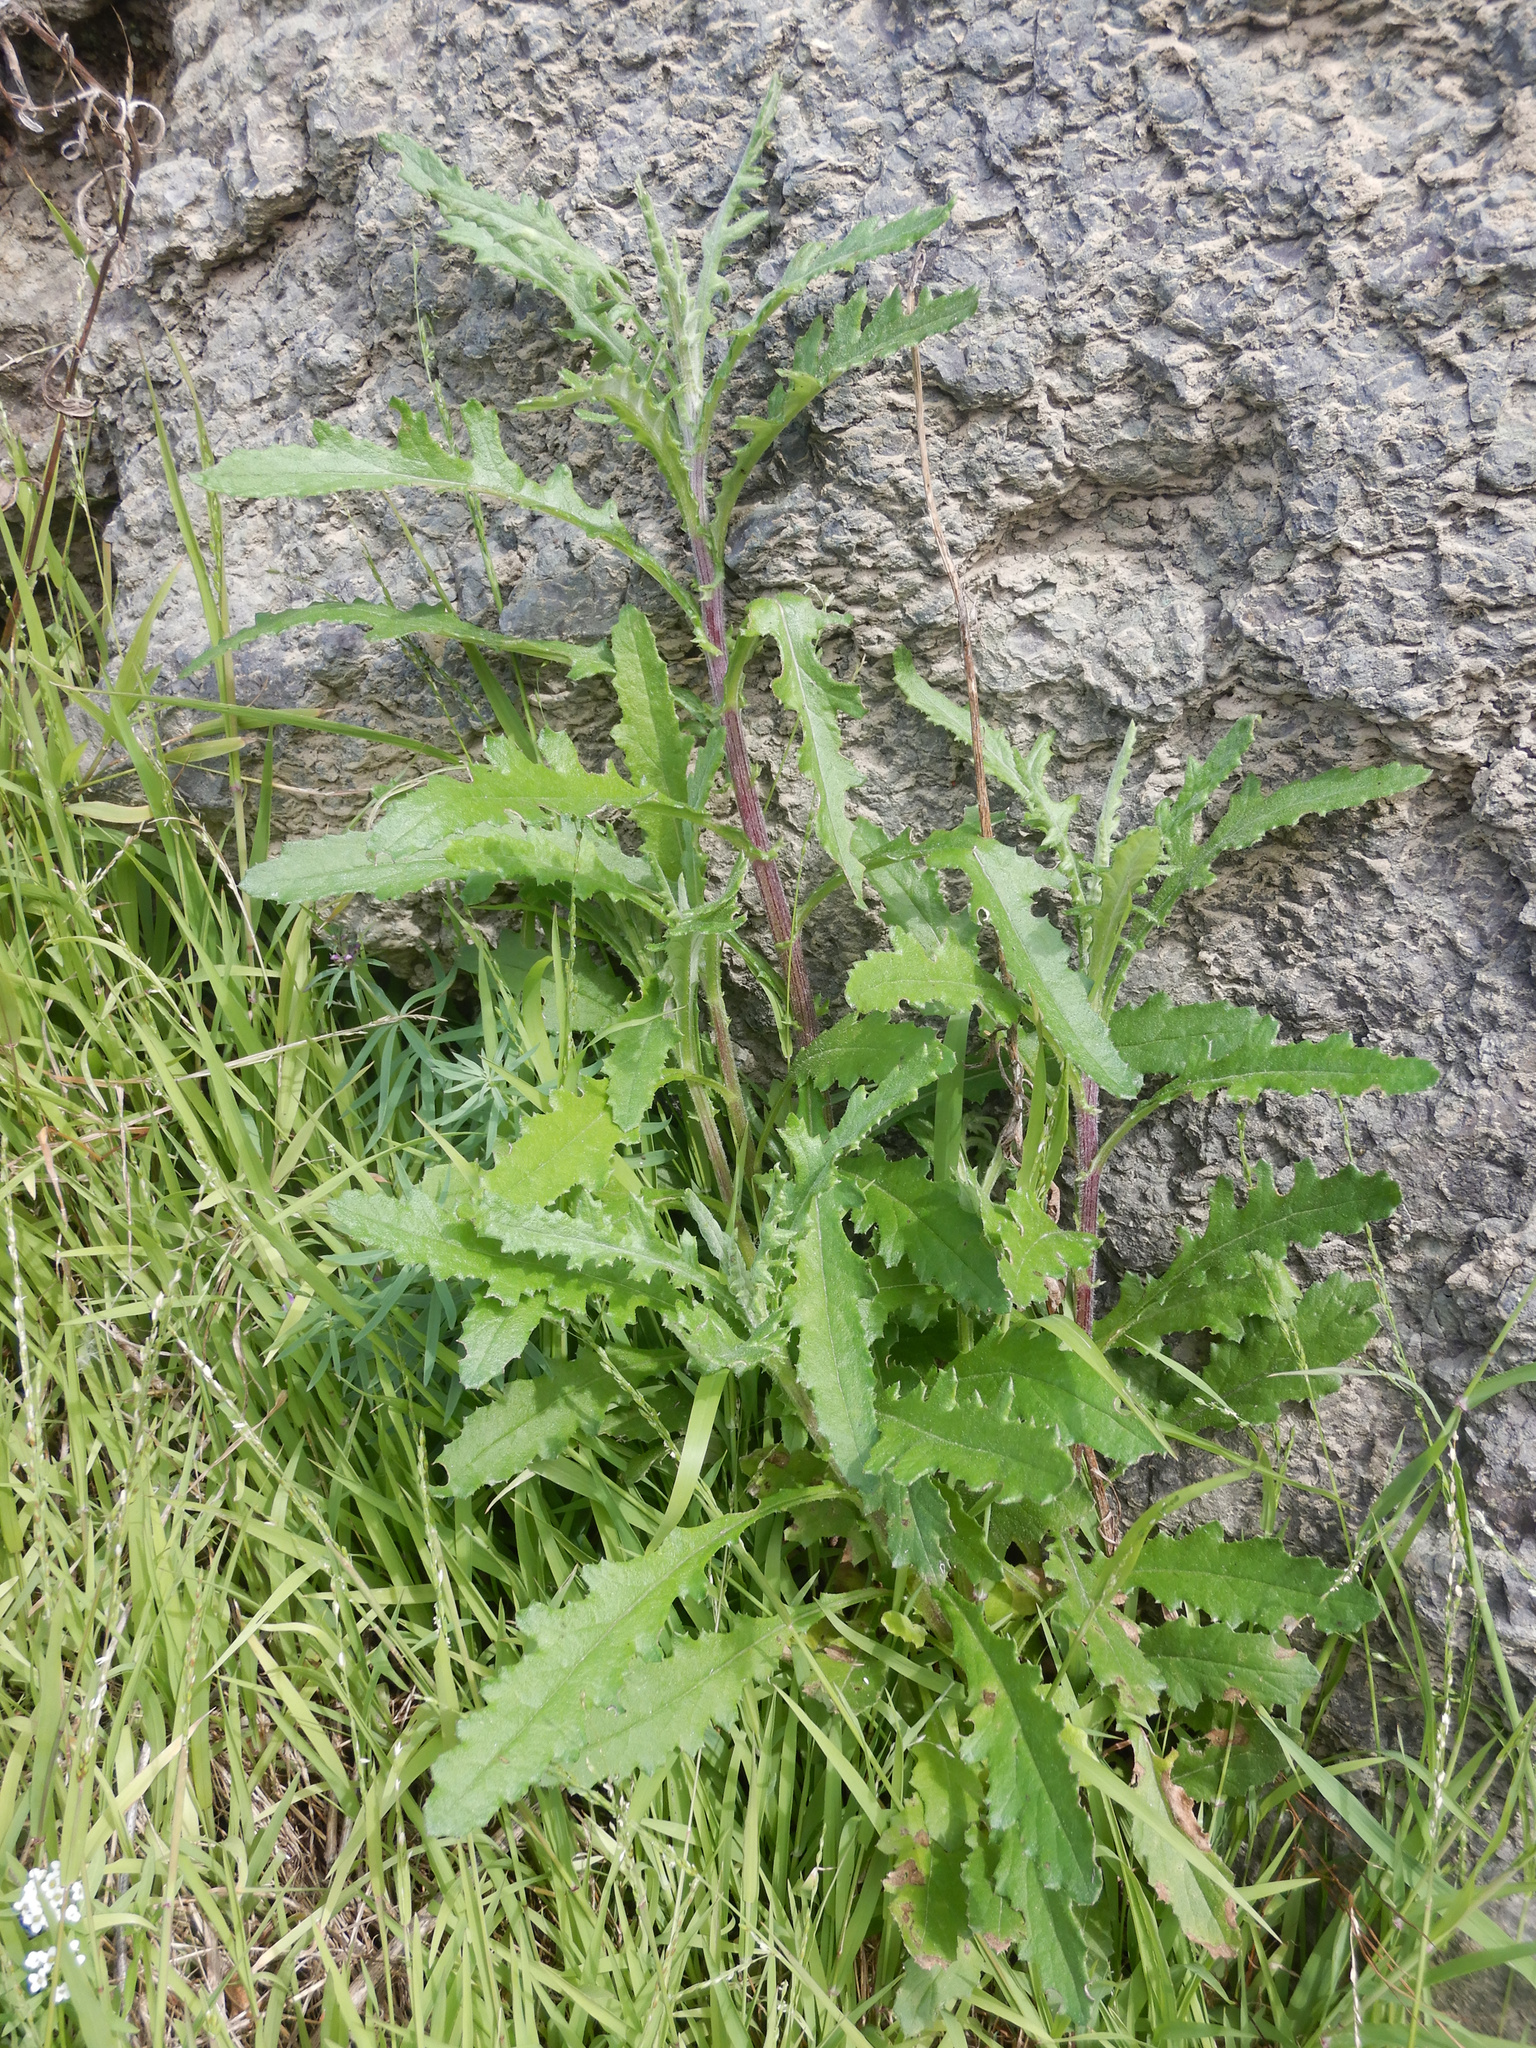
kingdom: Plantae
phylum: Tracheophyta
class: Magnoliopsida
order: Asterales
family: Asteraceae
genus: Senecio
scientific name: Senecio glomeratus
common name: Cutleaf burnweed
